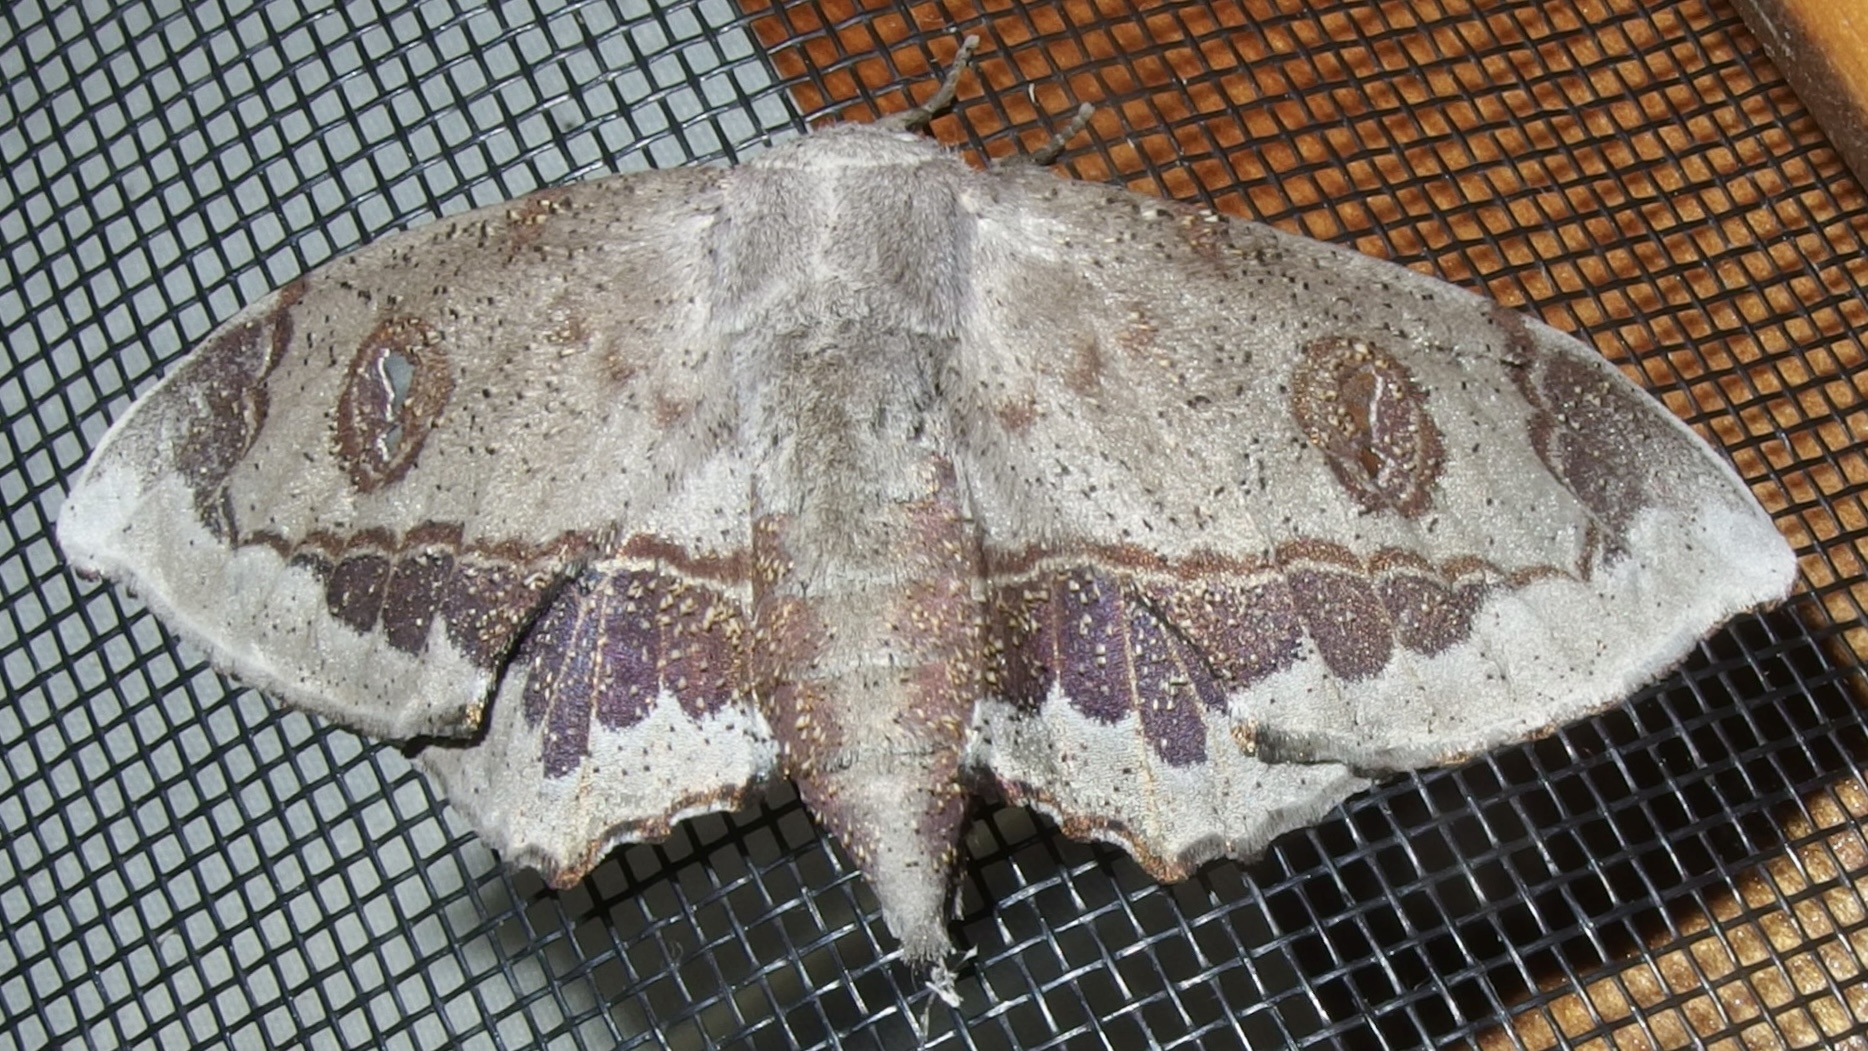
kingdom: Animalia
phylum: Arthropoda
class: Insecta
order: Lepidoptera
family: Mimallonidae
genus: Mimallo
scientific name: Mimallo amilia
